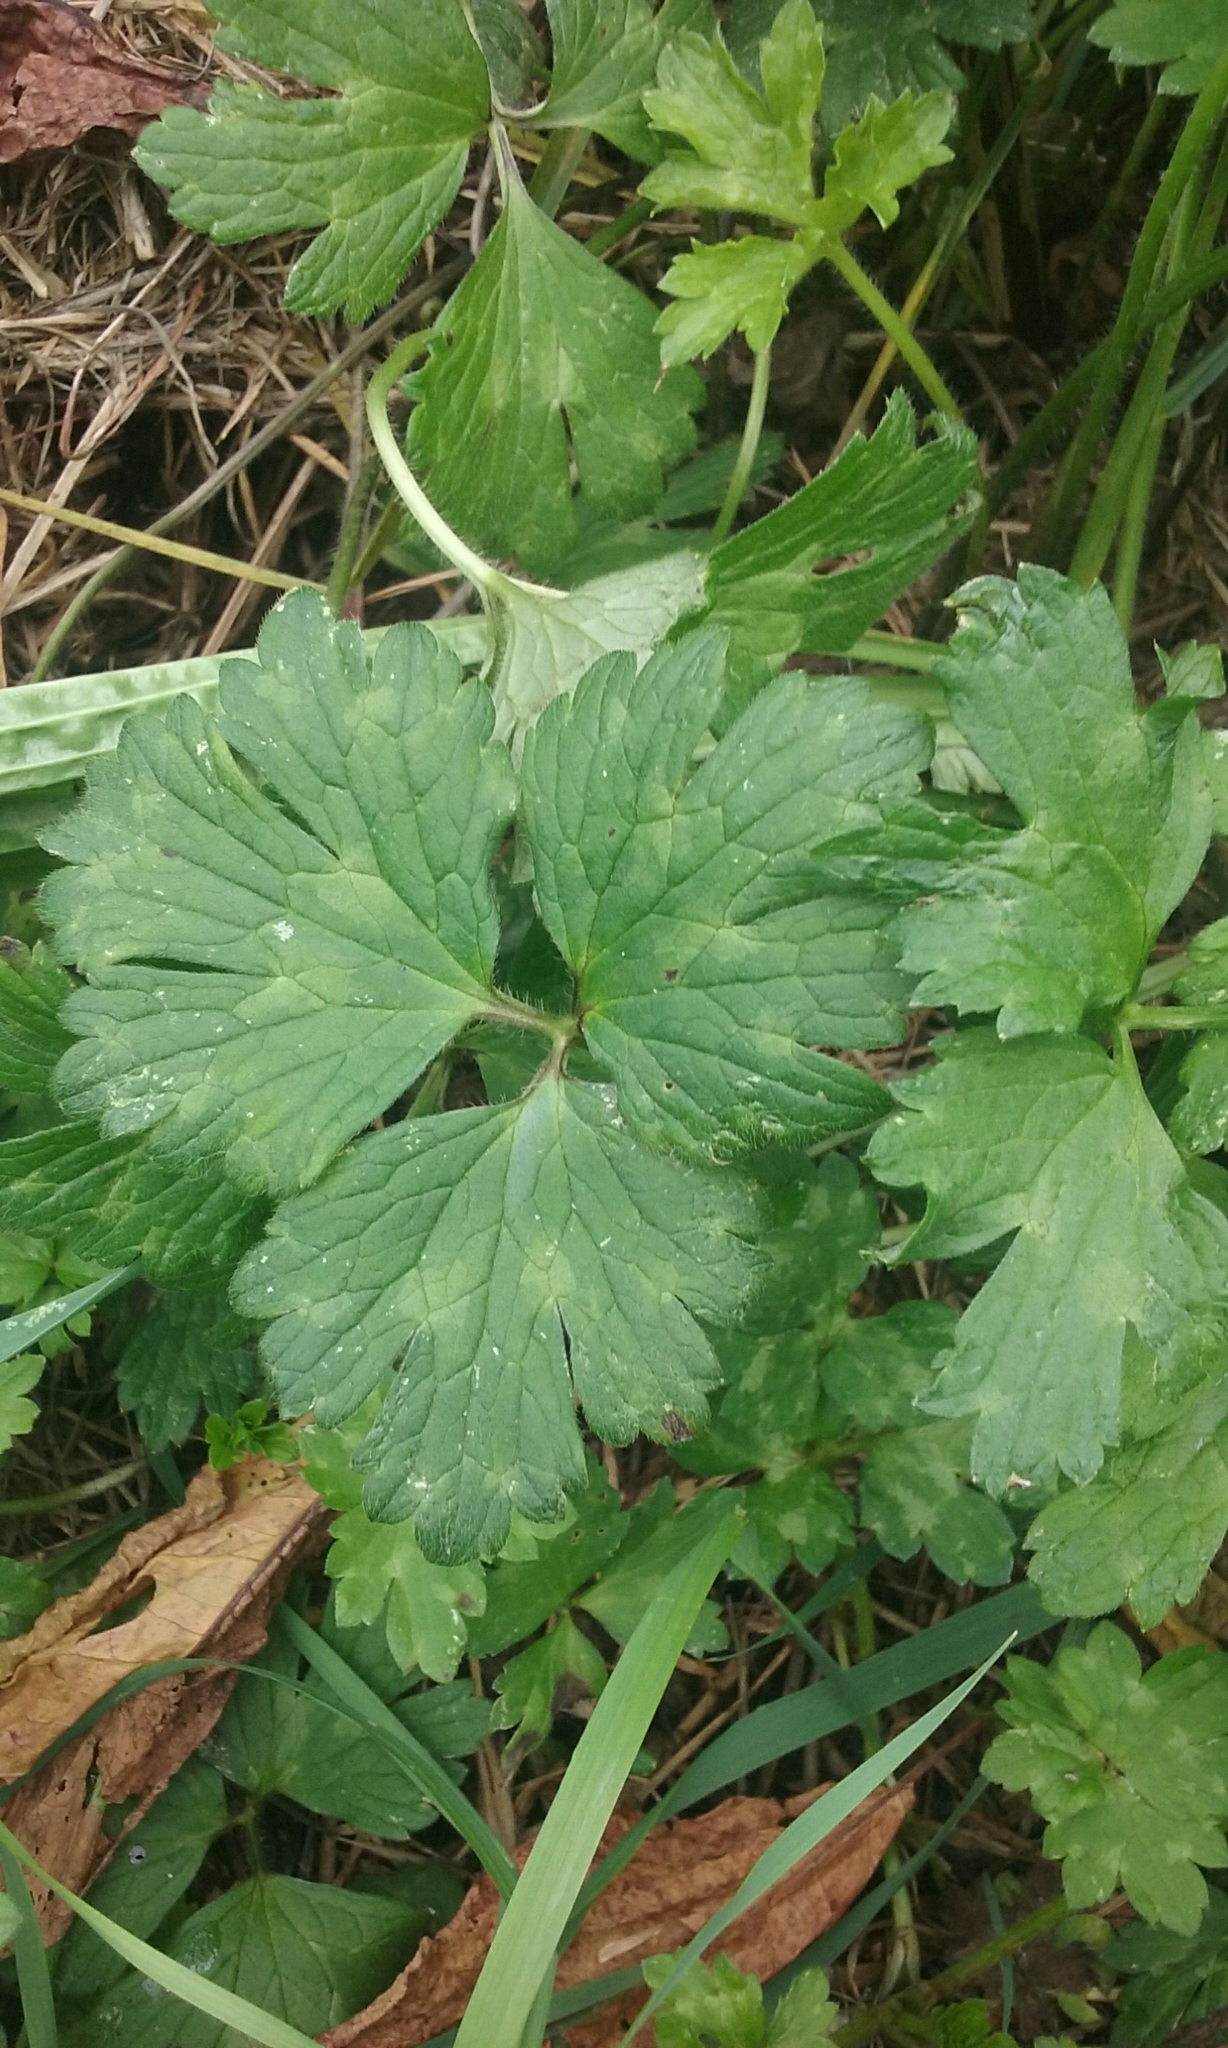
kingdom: Plantae
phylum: Tracheophyta
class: Magnoliopsida
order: Ranunculales
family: Ranunculaceae
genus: Ranunculus
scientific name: Ranunculus repens
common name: Creeping buttercup
